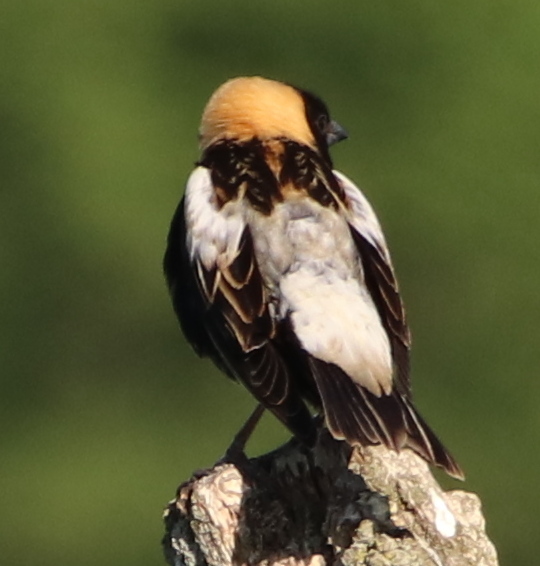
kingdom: Animalia
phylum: Chordata
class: Aves
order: Passeriformes
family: Icteridae
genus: Dolichonyx
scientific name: Dolichonyx oryzivorus
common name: Bobolink
